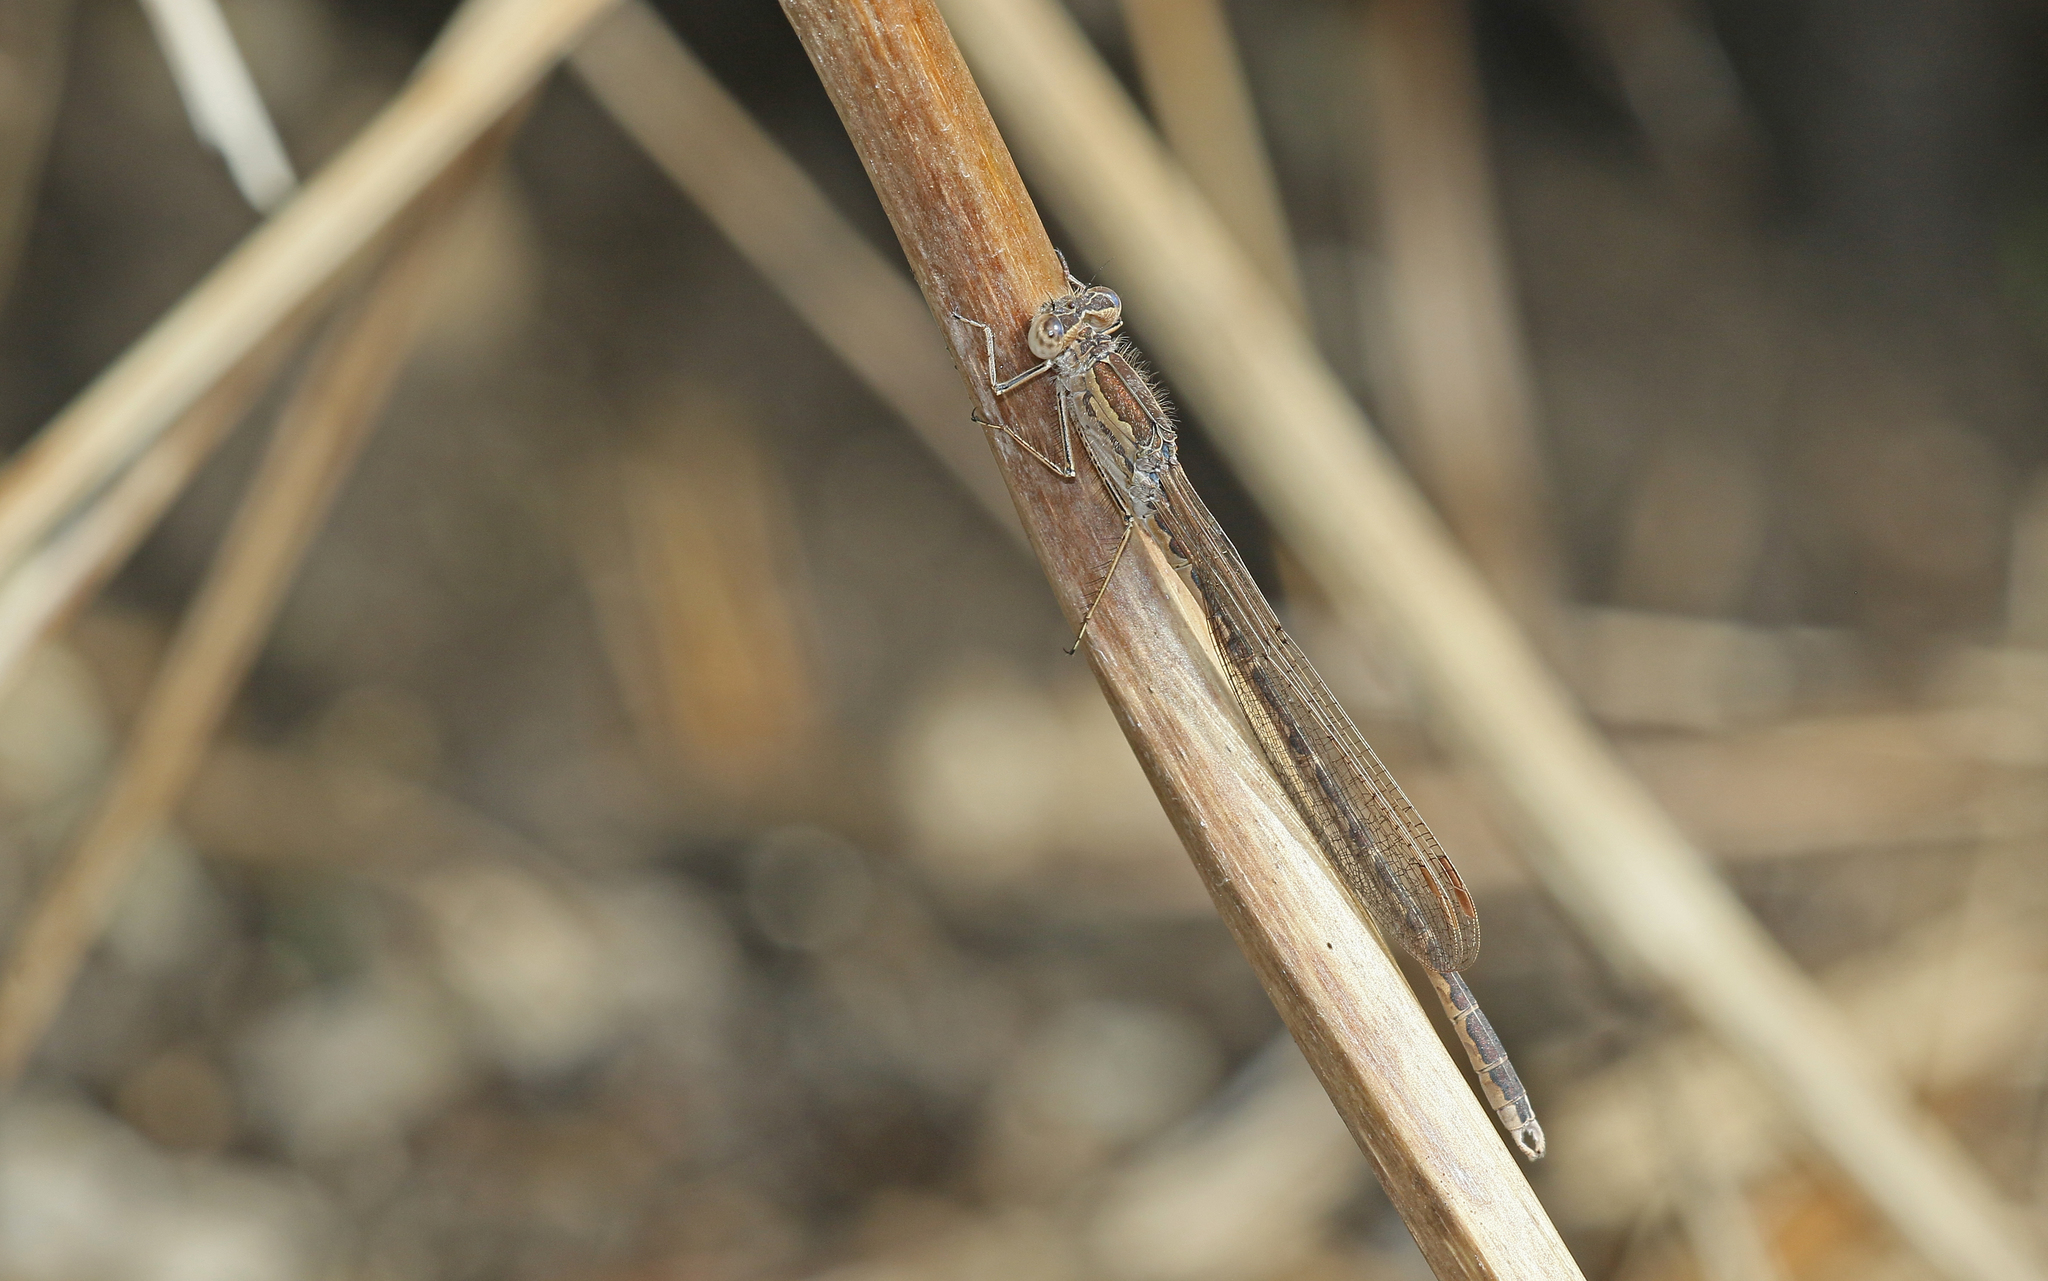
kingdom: Animalia
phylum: Arthropoda
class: Insecta
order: Odonata
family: Lestidae
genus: Sympecma
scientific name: Sympecma paedisca
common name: Siberian winter damsel
